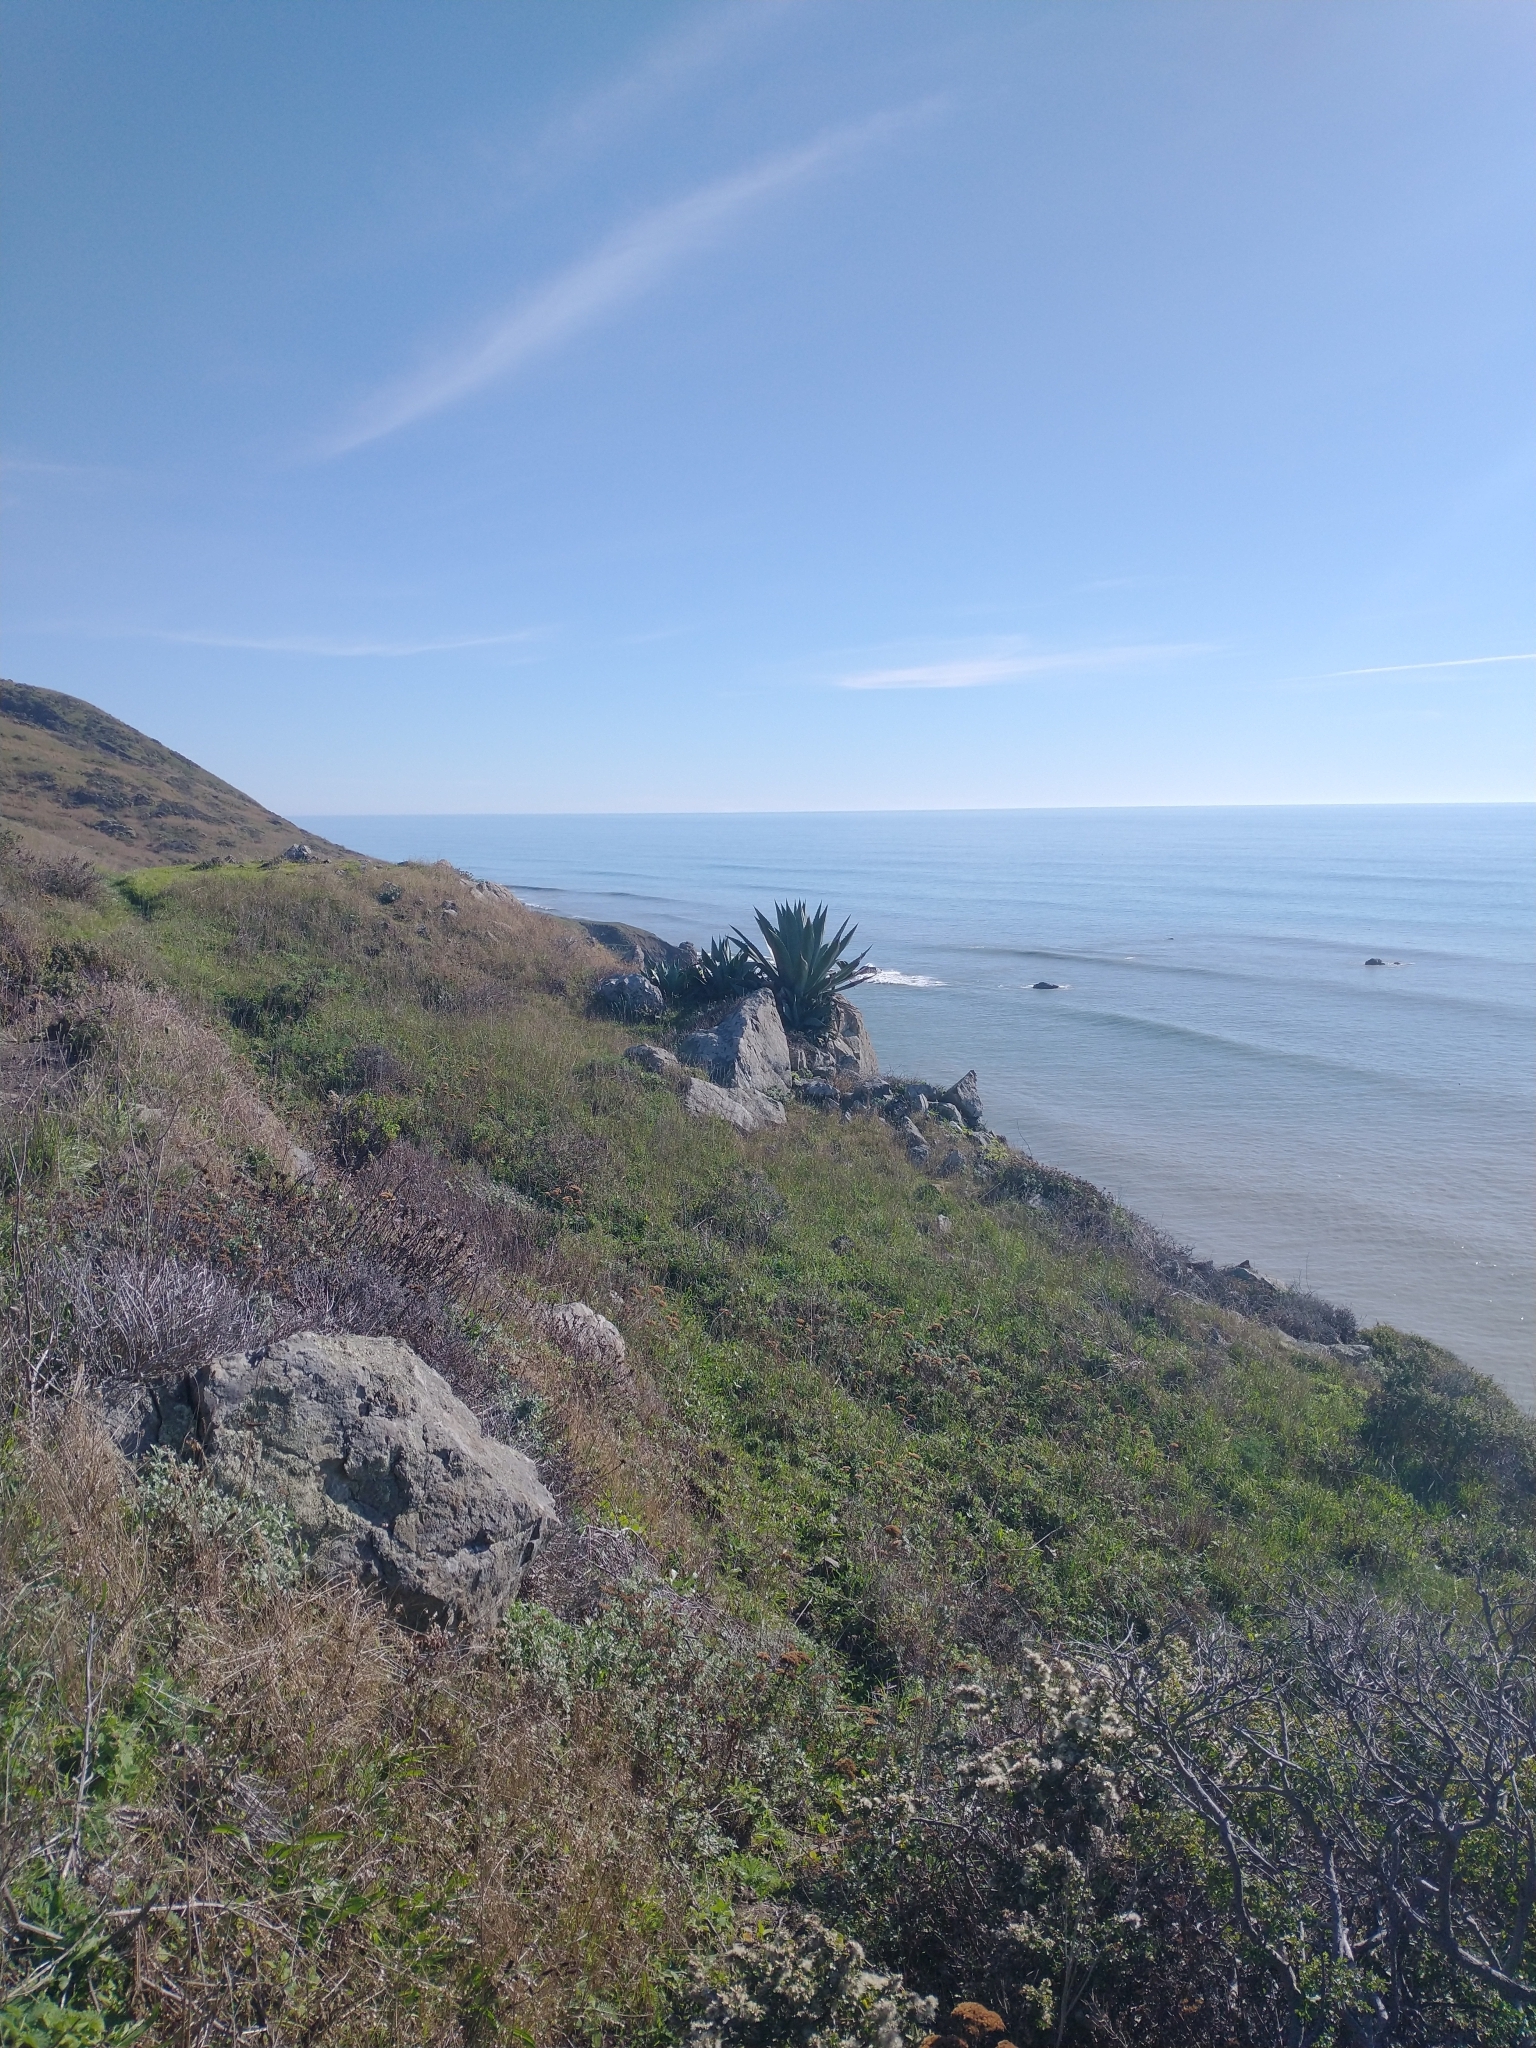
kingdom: Plantae
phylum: Tracheophyta
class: Liliopsida
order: Asparagales
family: Asparagaceae
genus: Agave
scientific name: Agave americana
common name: Centuryplant
